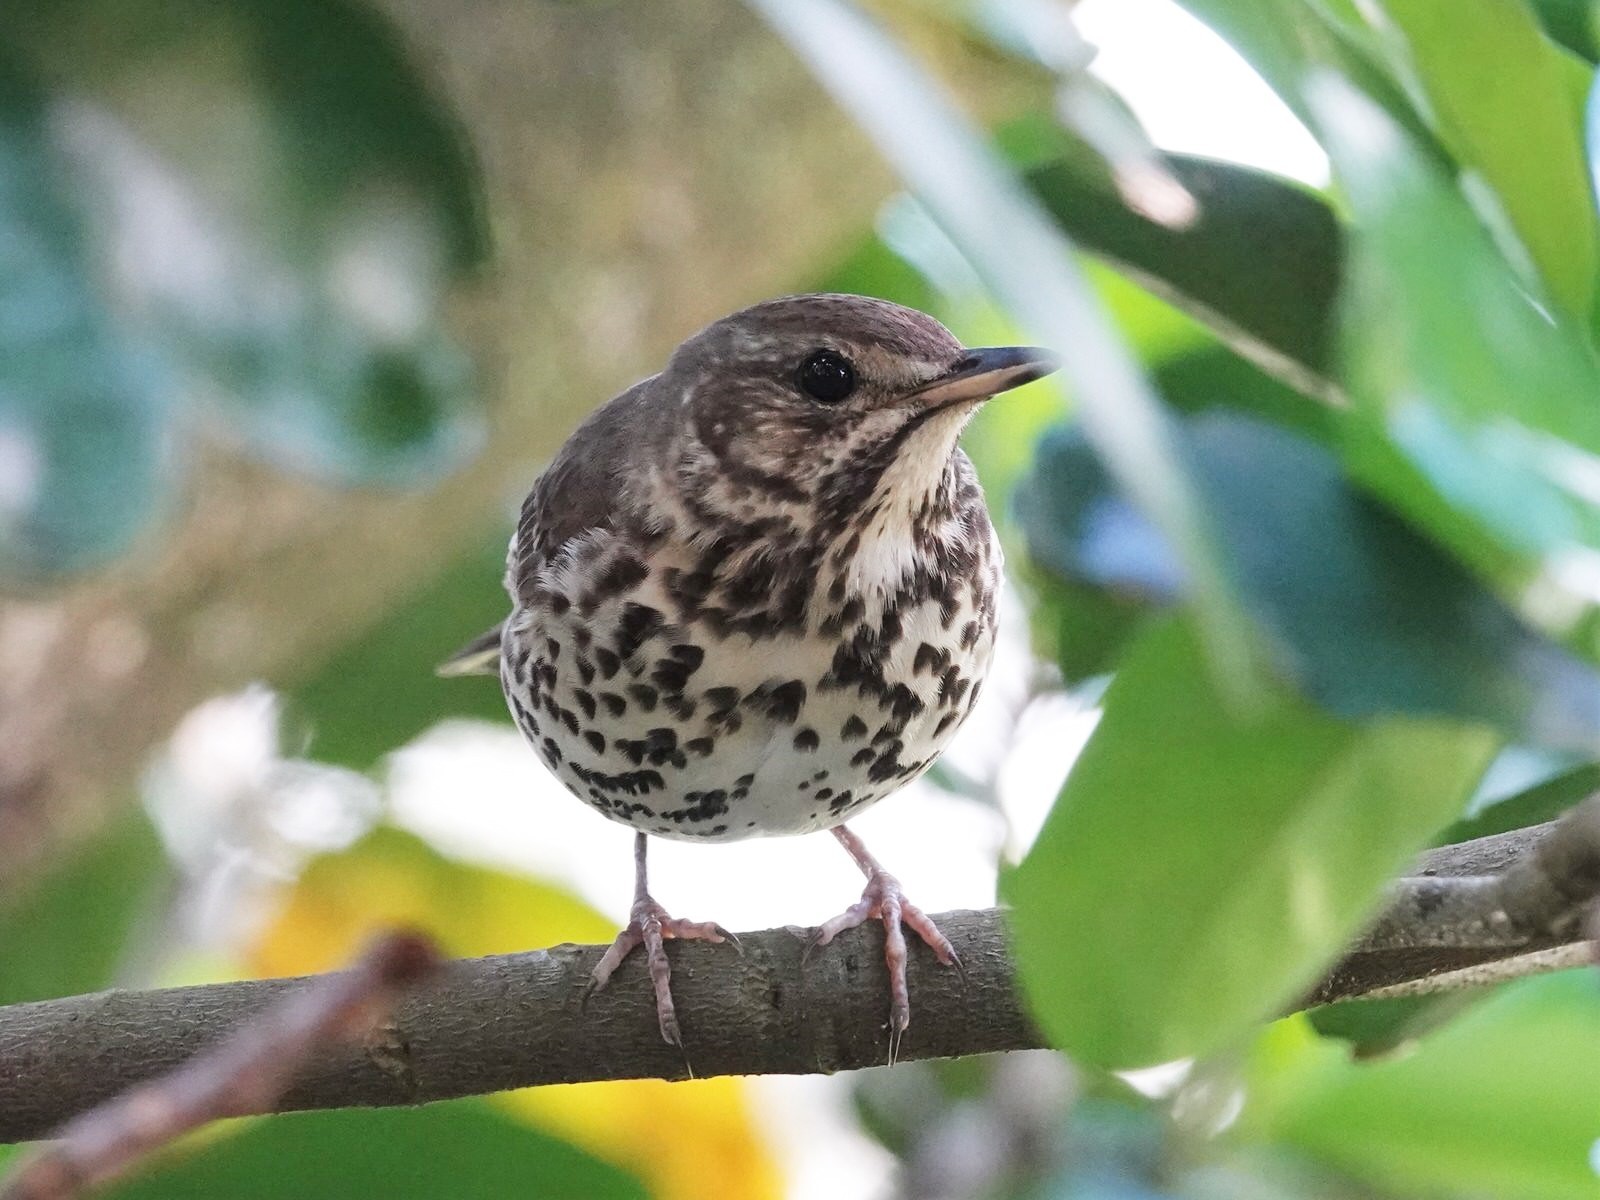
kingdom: Animalia
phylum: Chordata
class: Aves
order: Passeriformes
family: Turdidae
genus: Turdus
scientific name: Turdus philomelos
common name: Song thrush
